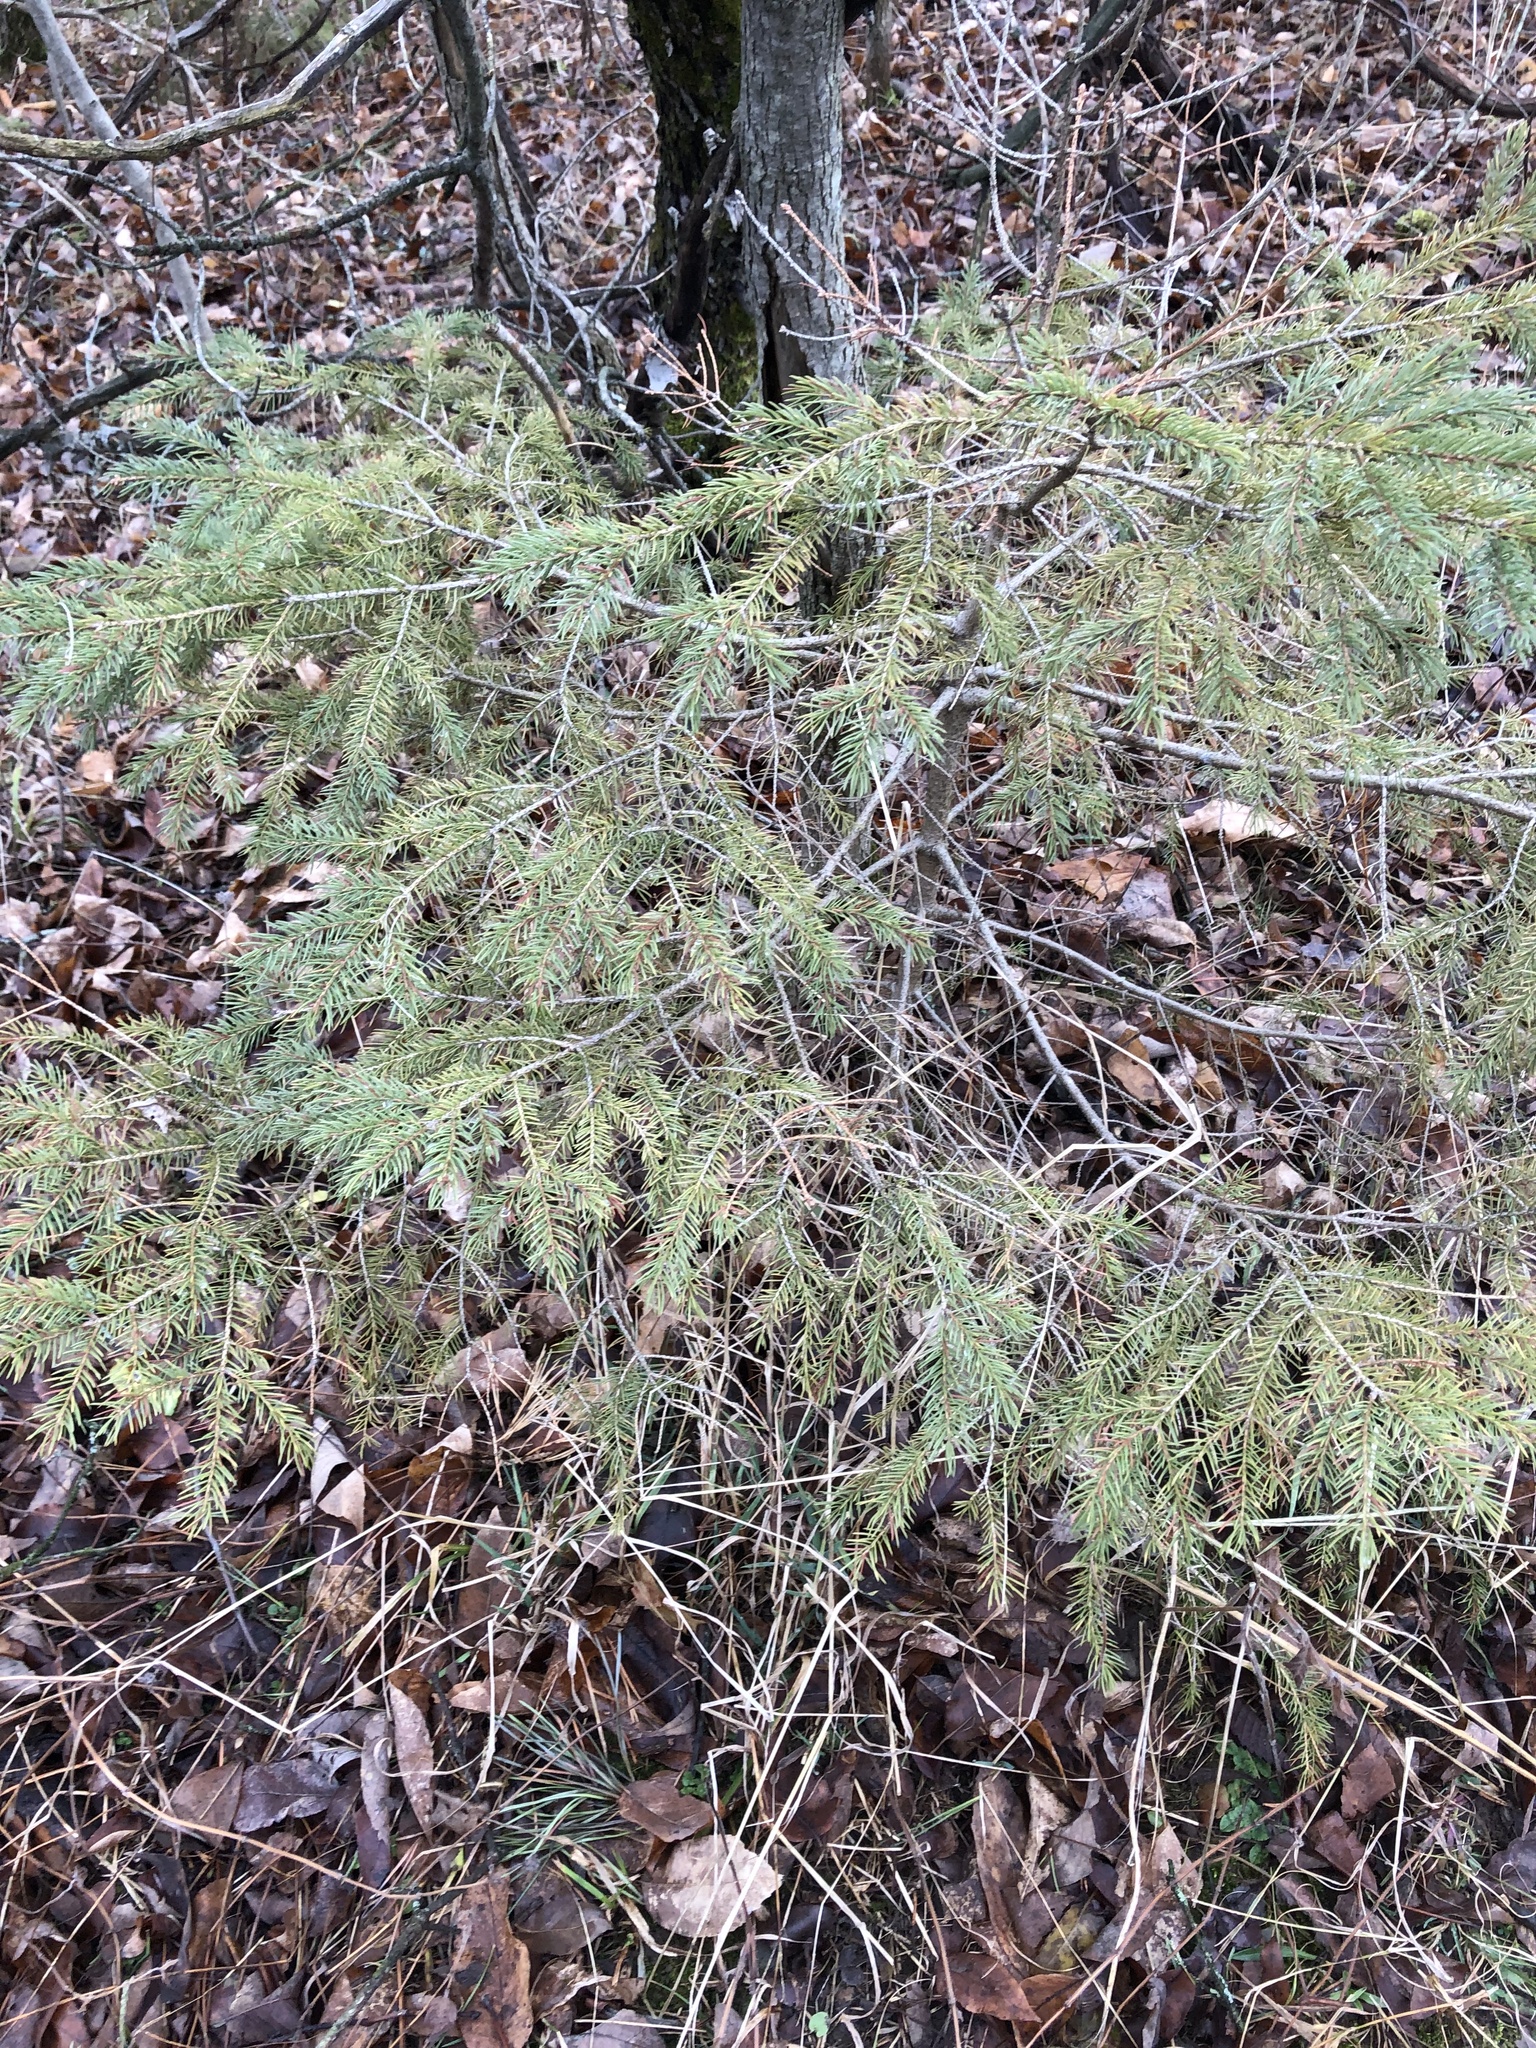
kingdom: Plantae
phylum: Tracheophyta
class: Pinopsida
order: Pinales
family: Pinaceae
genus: Picea
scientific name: Picea glauca
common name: White spruce
